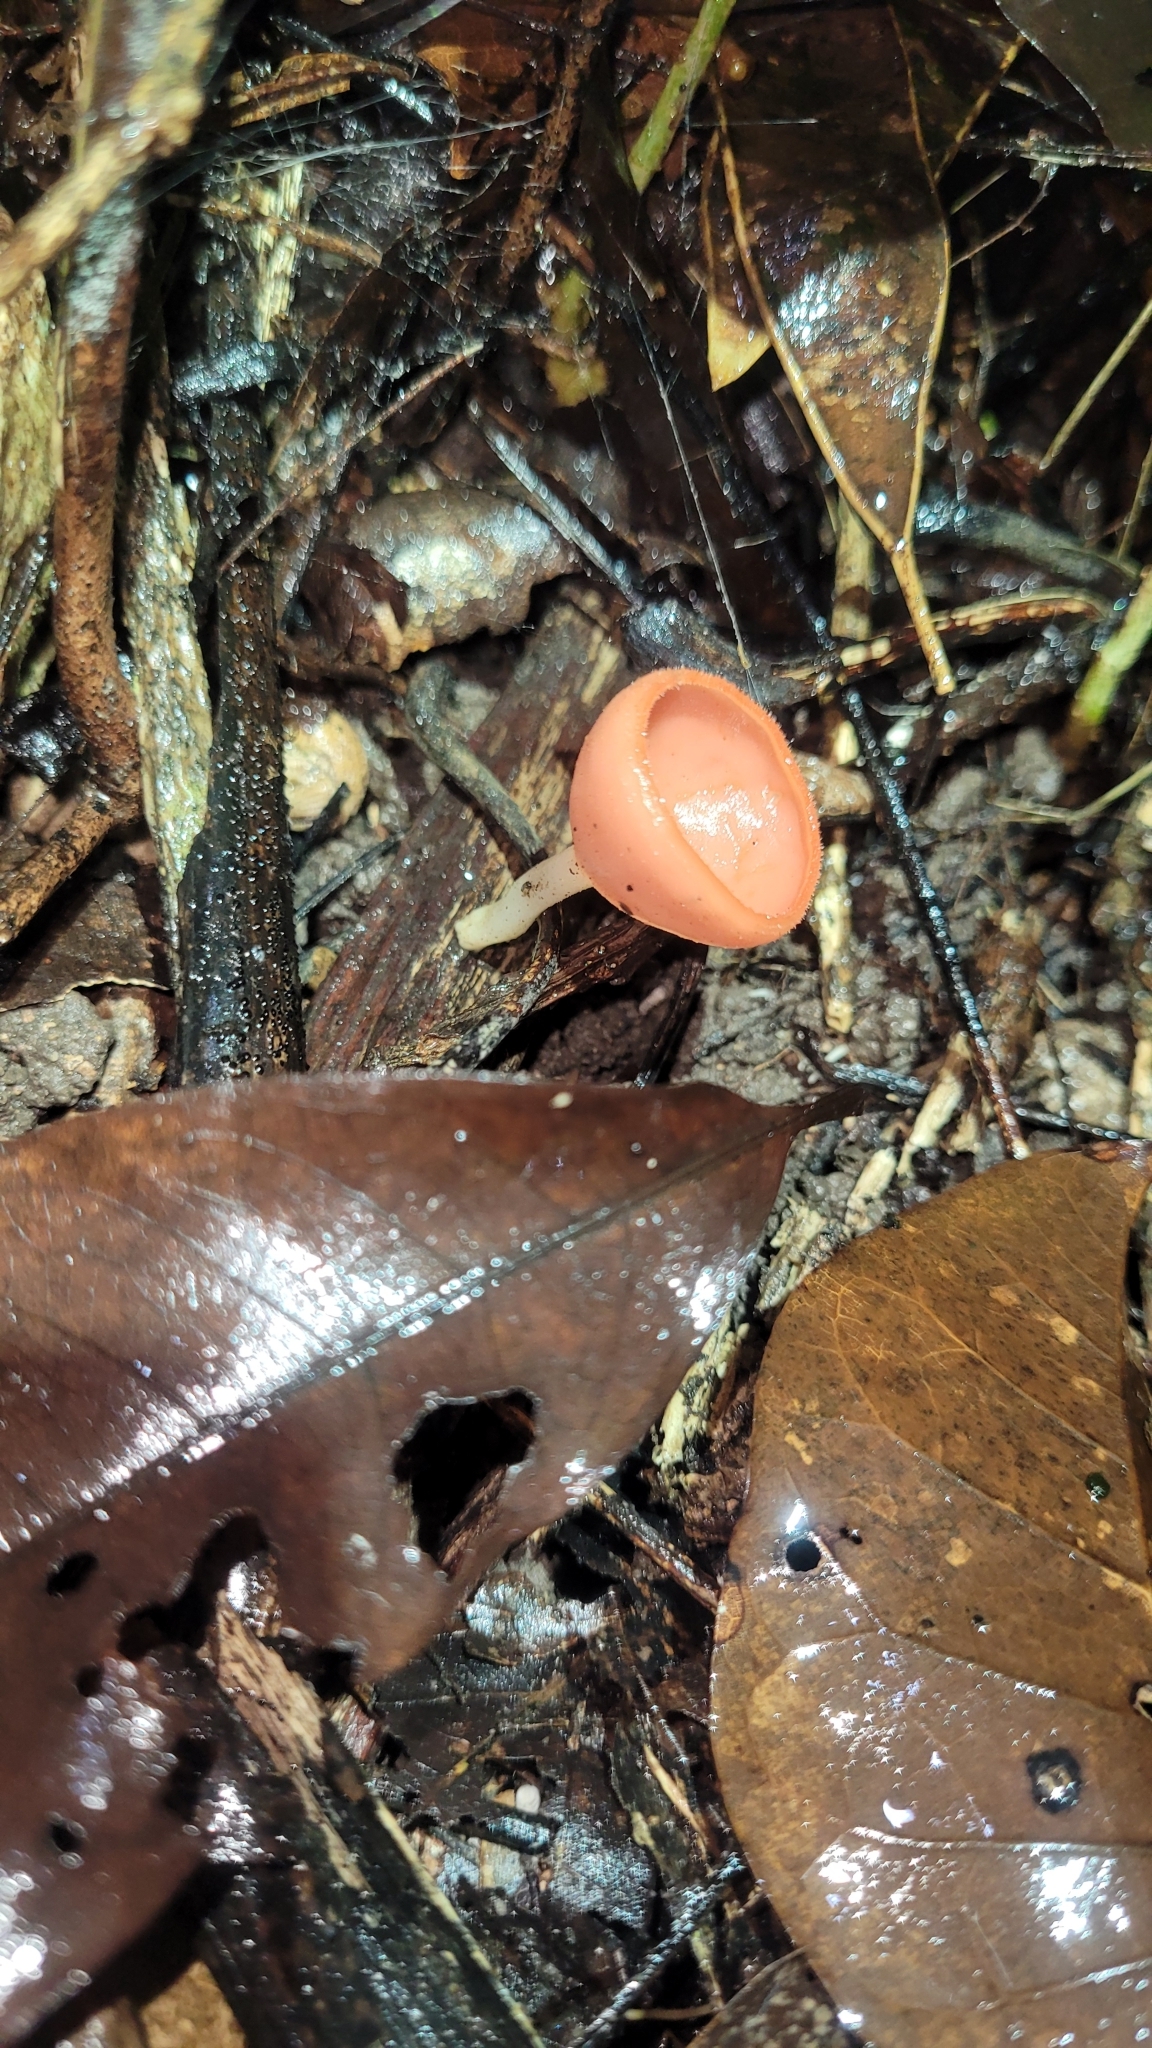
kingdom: Fungi
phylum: Ascomycota
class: Pezizomycetes
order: Pezizales
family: Sarcoscyphaceae
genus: Cookeina
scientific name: Cookeina speciosa
